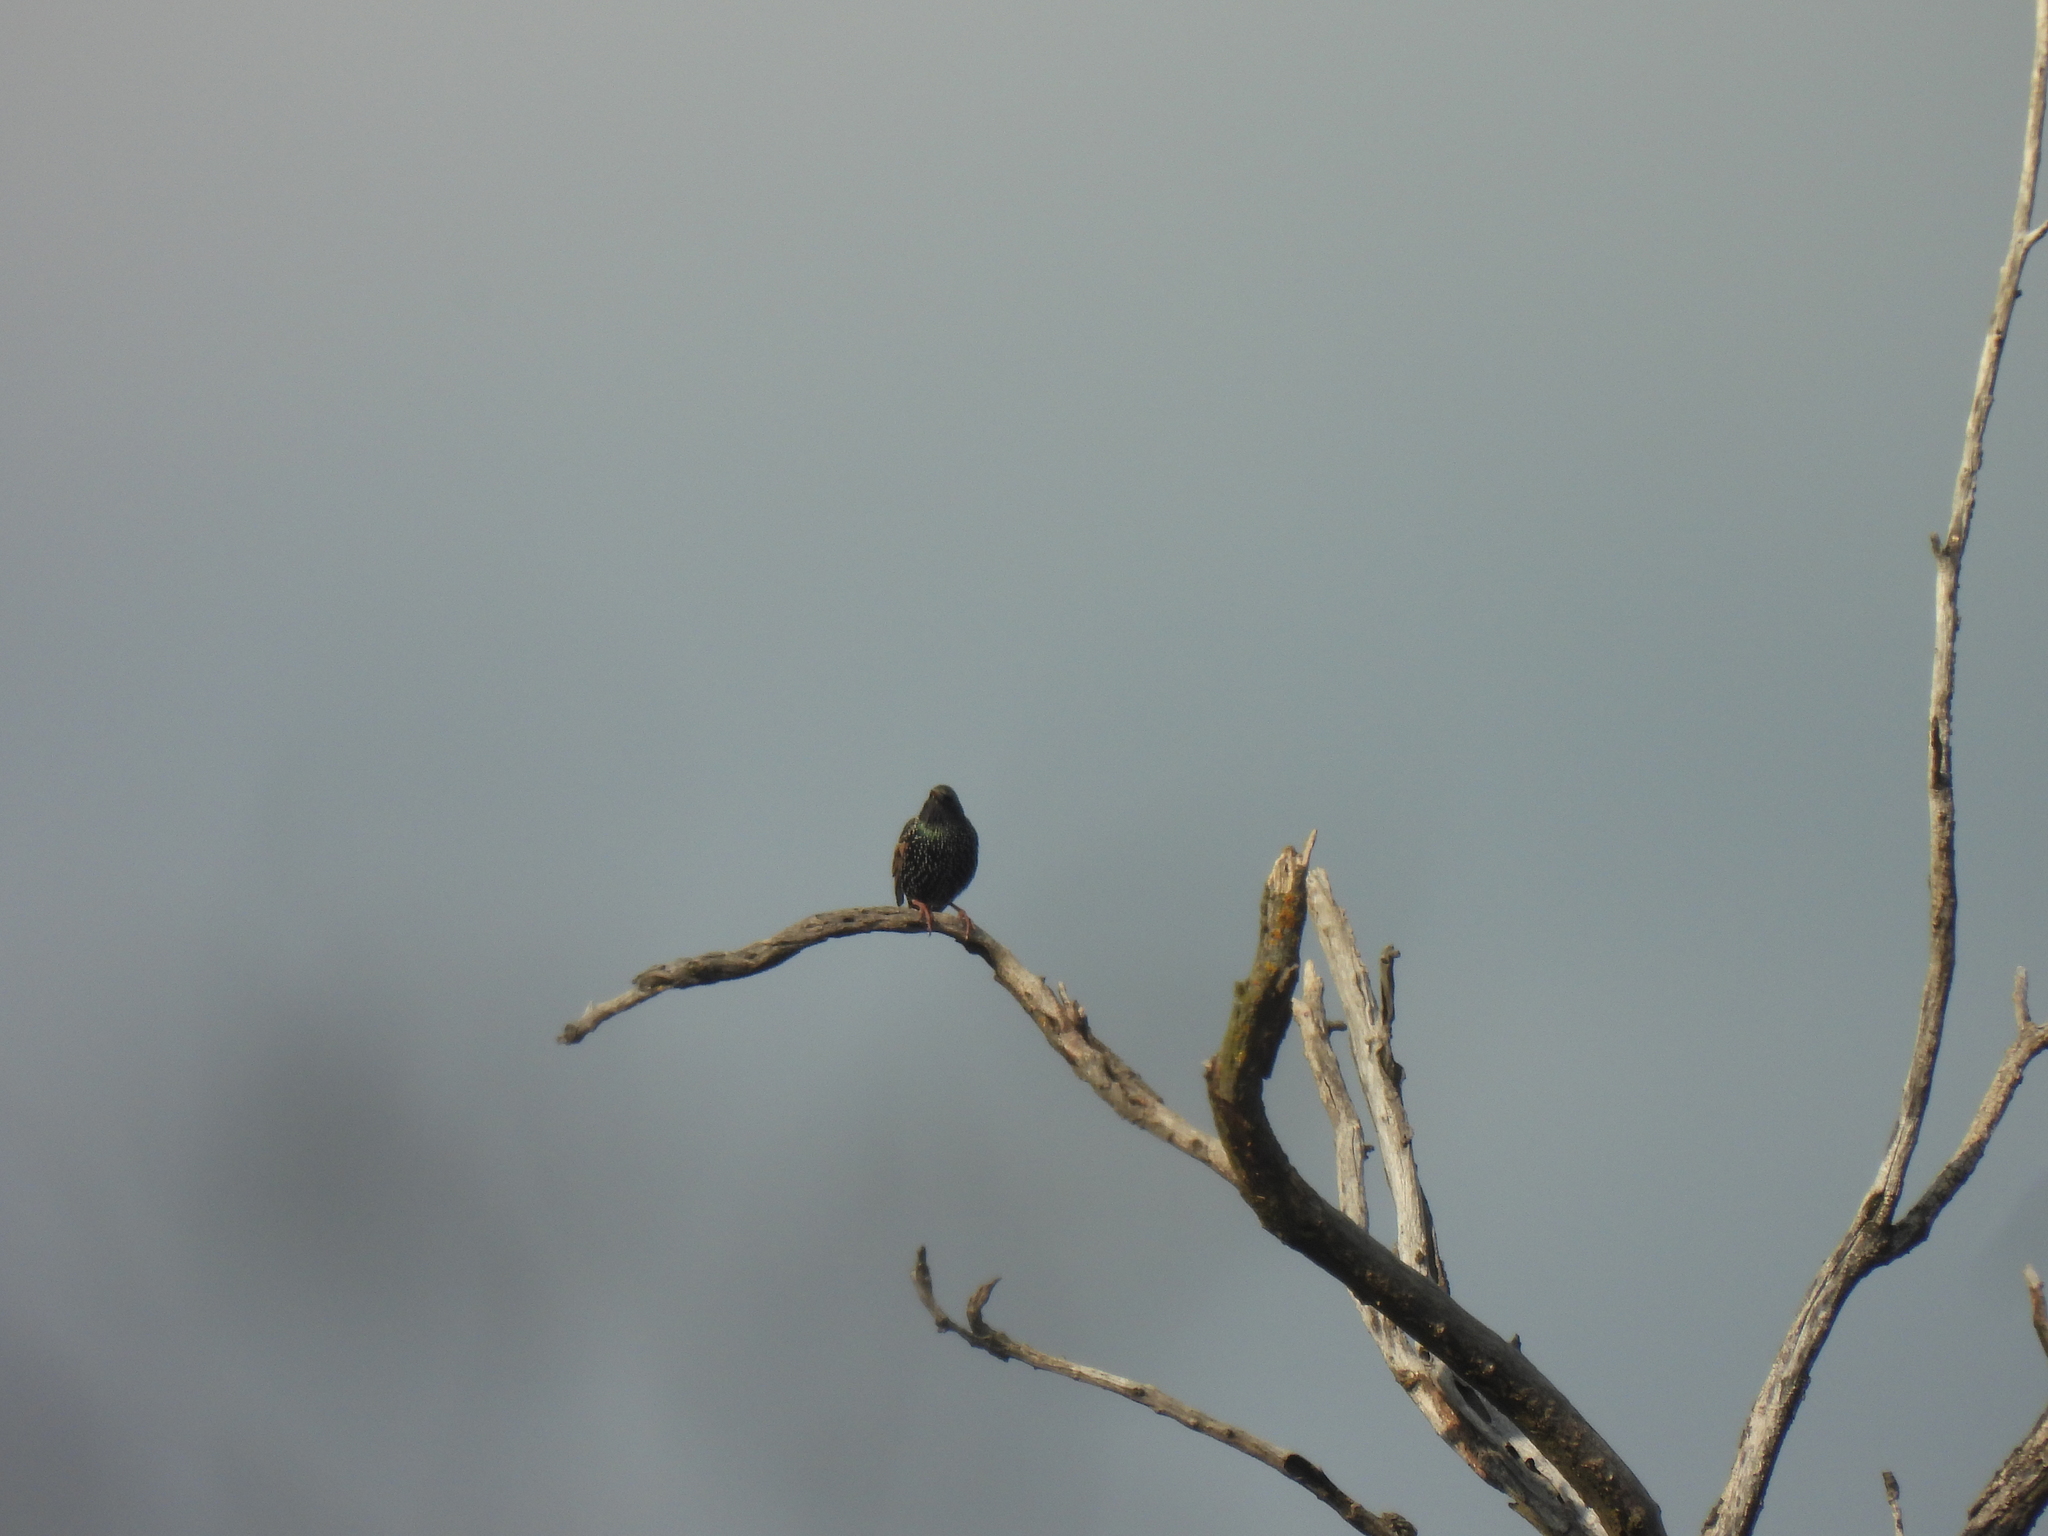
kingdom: Animalia
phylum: Chordata
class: Aves
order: Passeriformes
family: Sturnidae
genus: Sturnus
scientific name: Sturnus vulgaris
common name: Common starling
